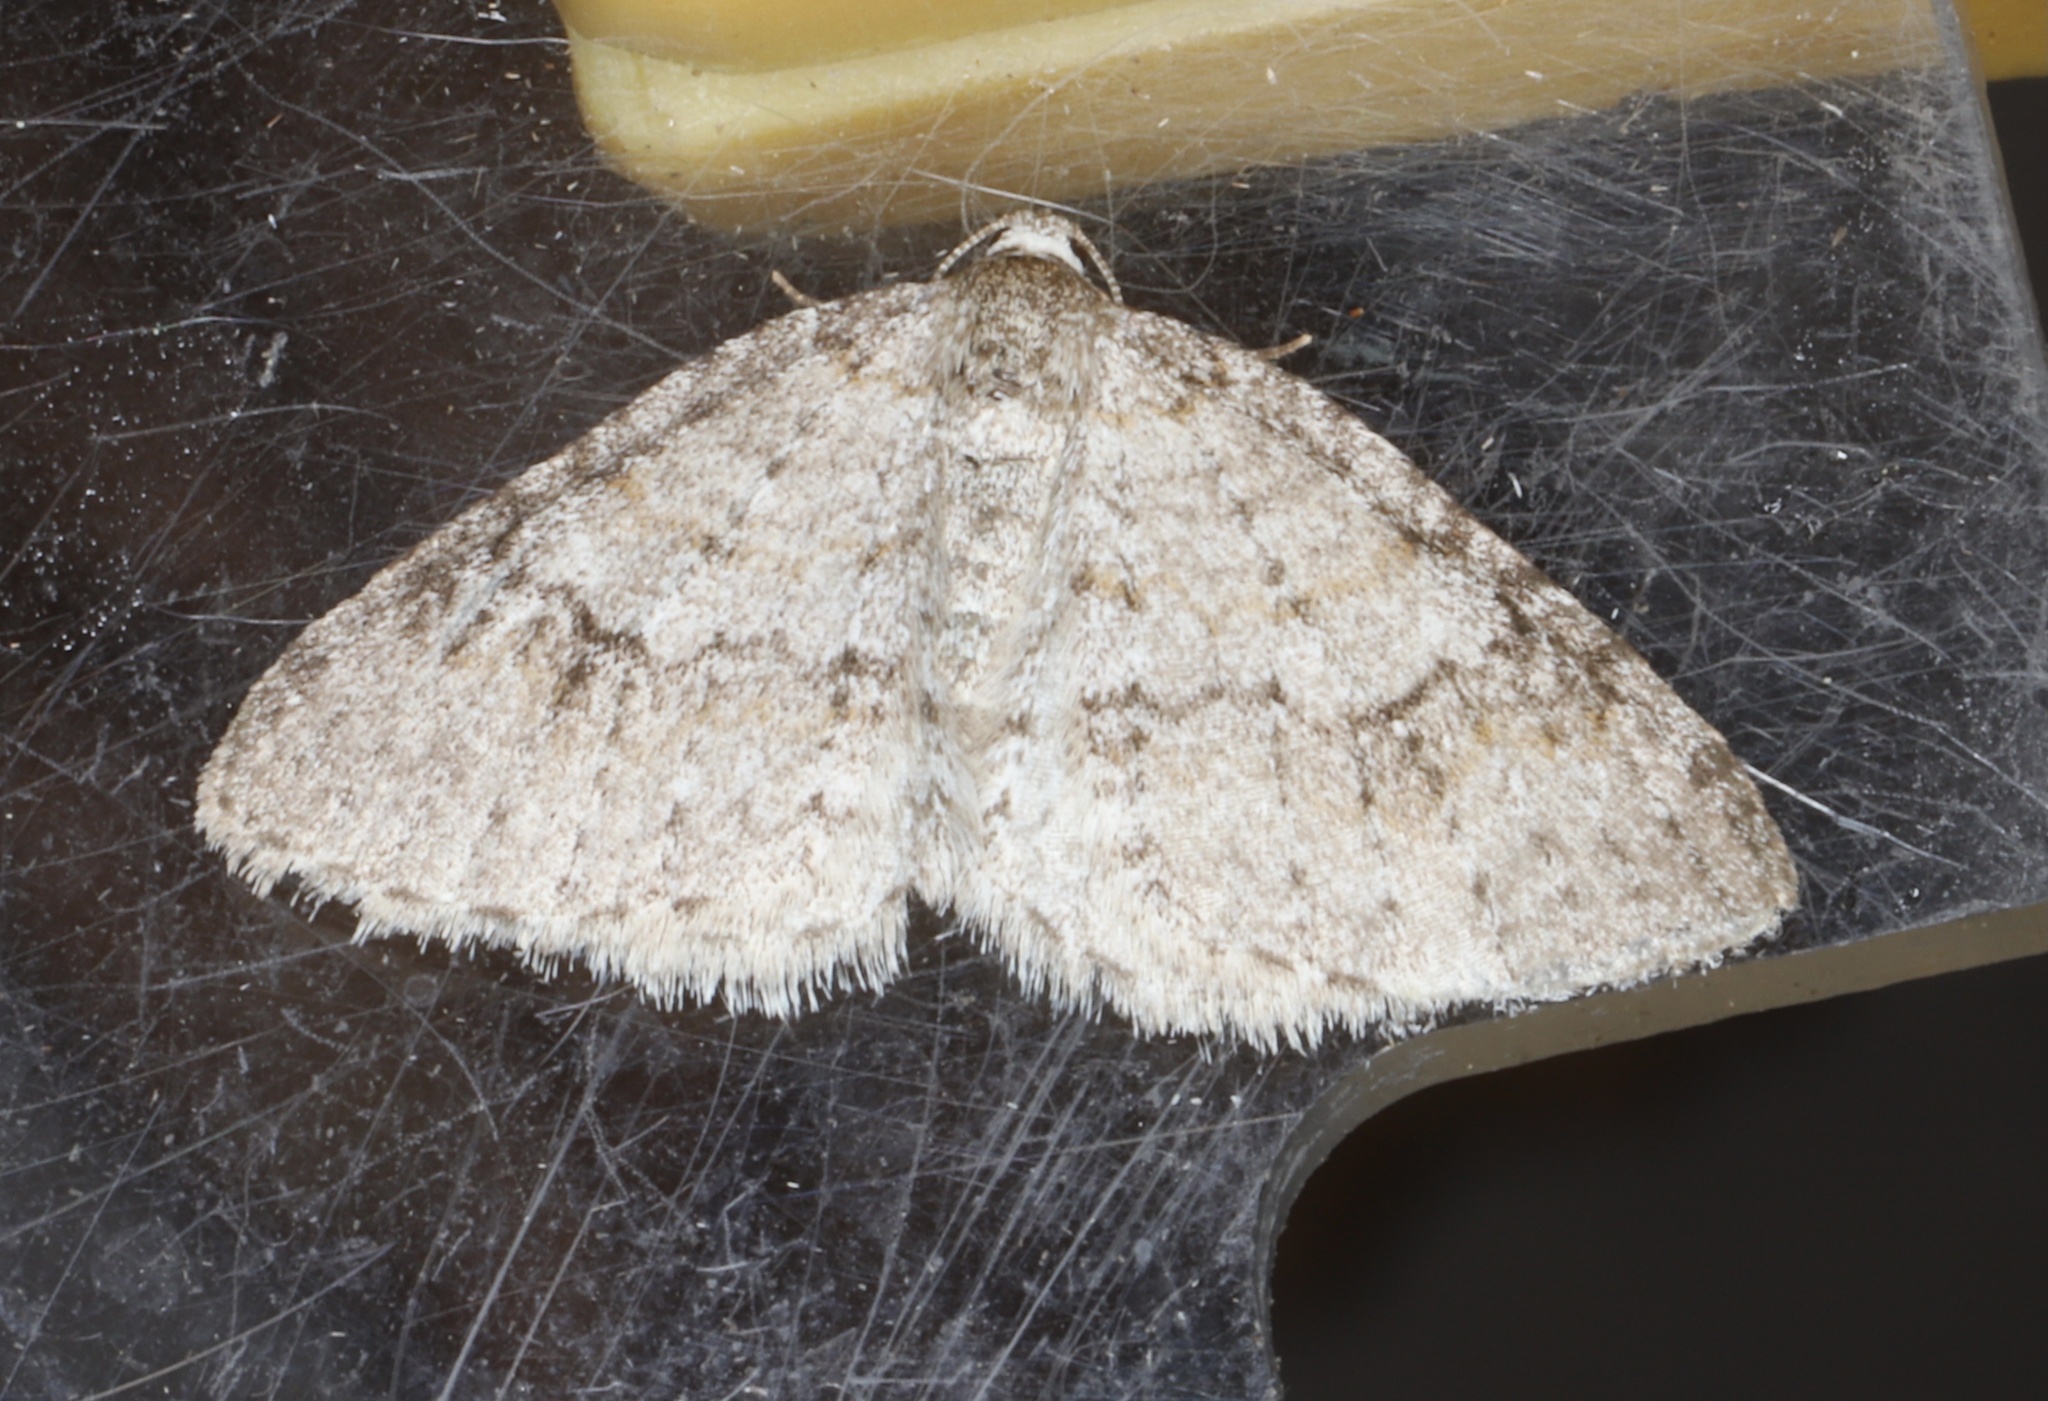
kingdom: Animalia
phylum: Arthropoda
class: Insecta
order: Lepidoptera
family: Geometridae
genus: Venusia
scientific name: Venusia comptaria
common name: Brown-shaded carpet
